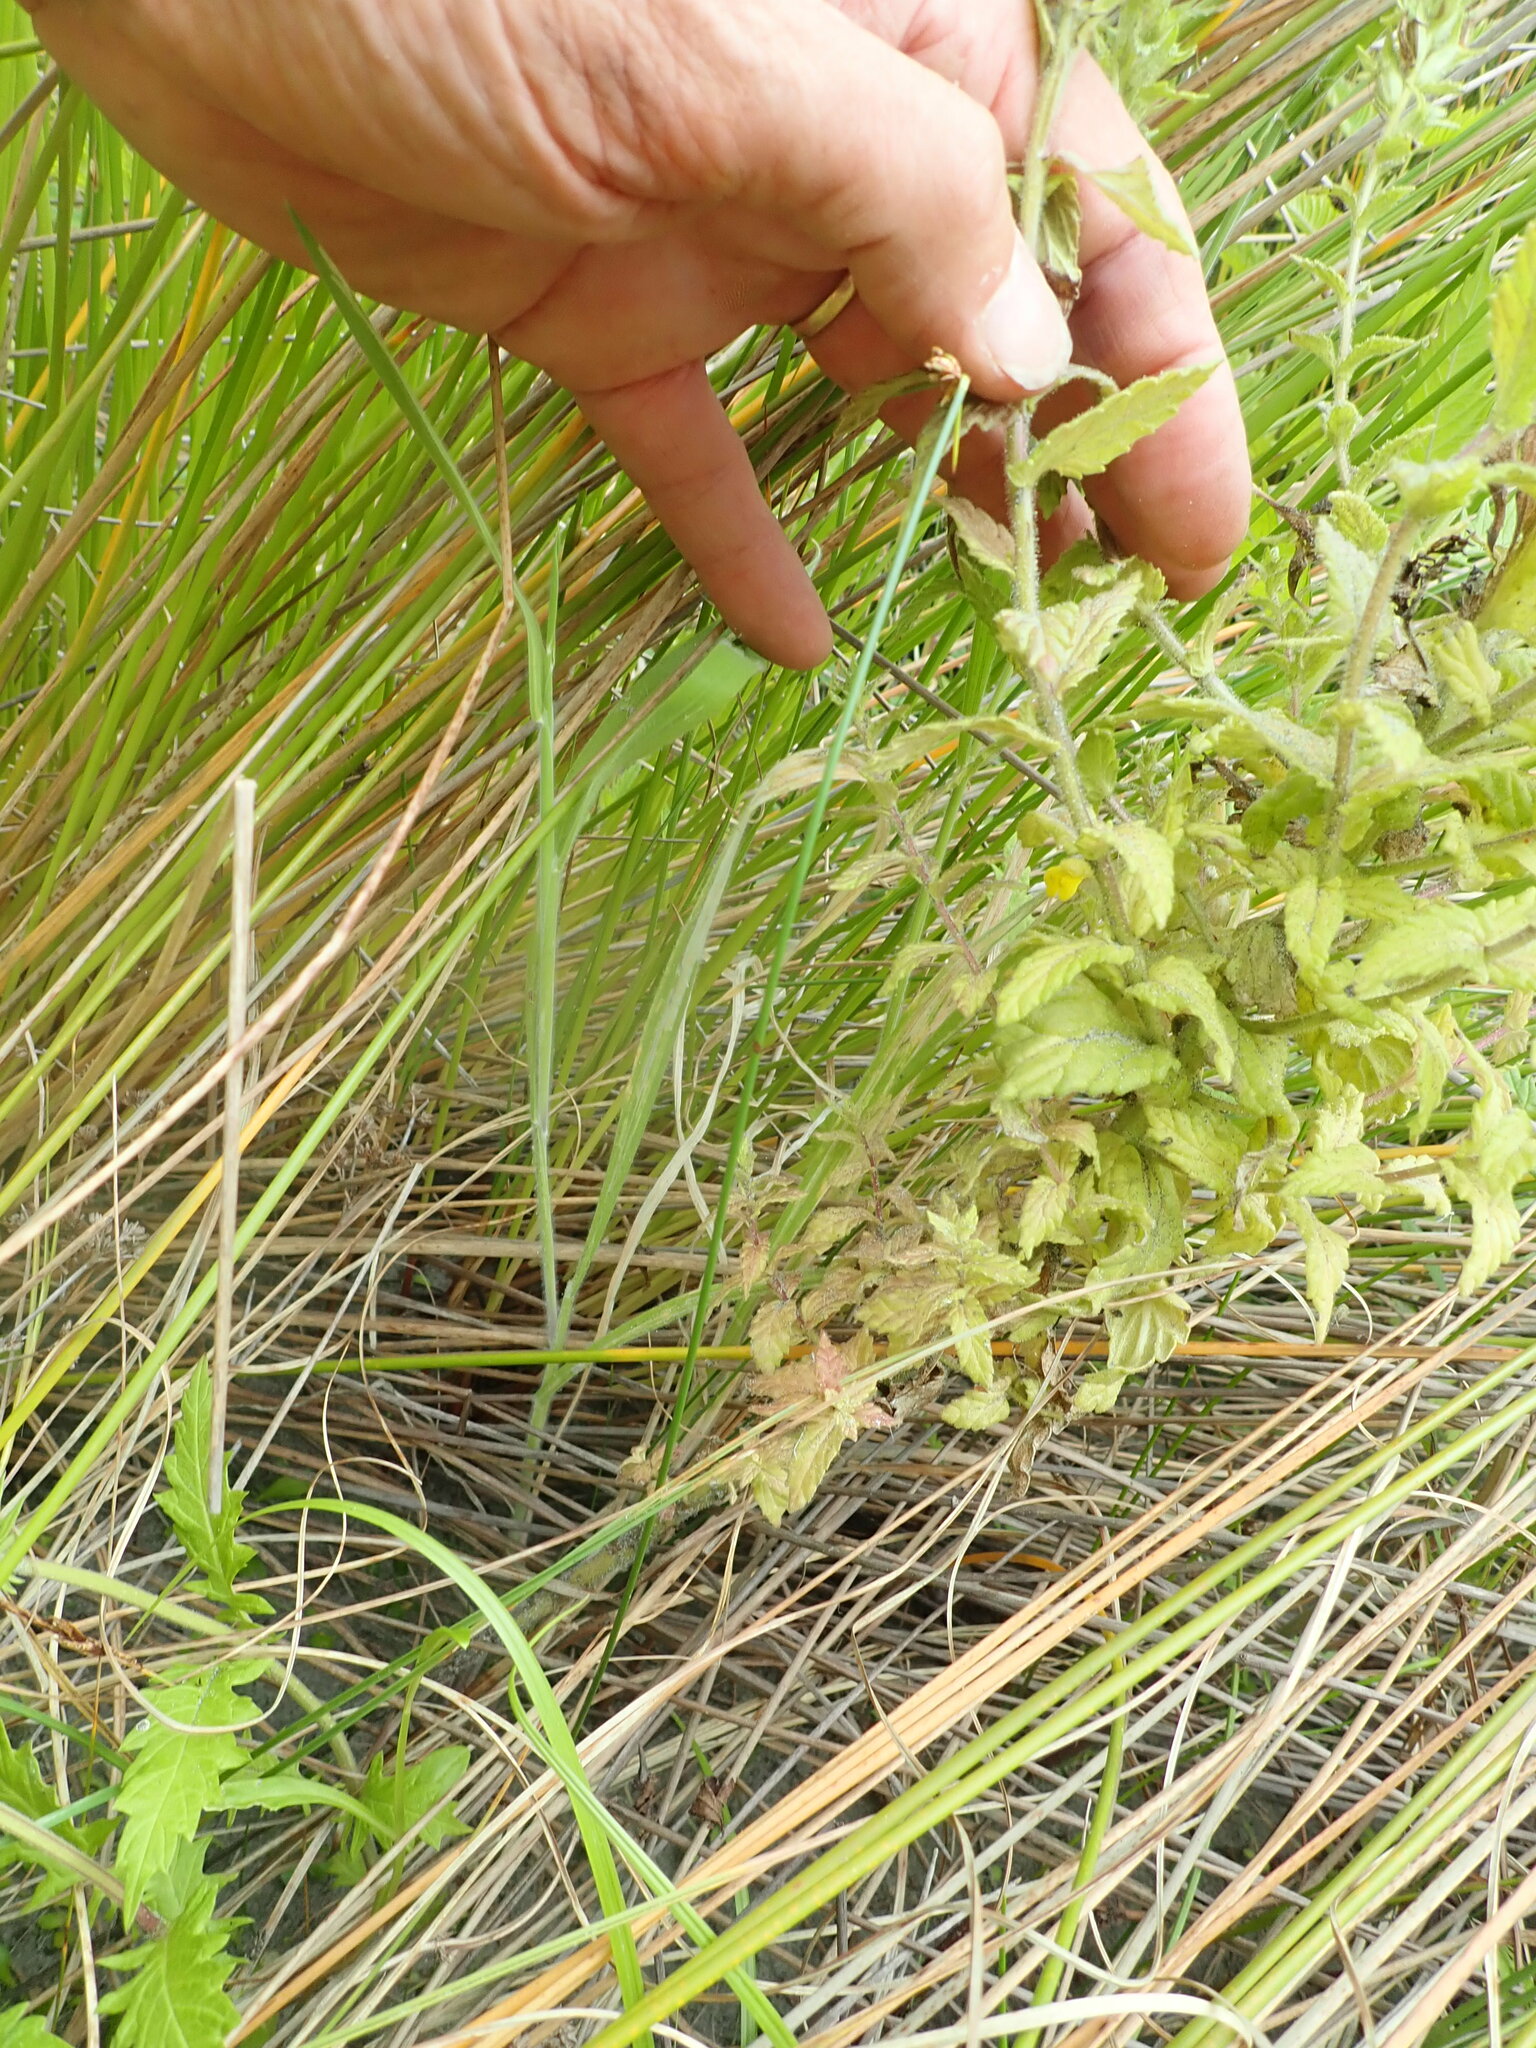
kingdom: Plantae
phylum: Tracheophyta
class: Magnoliopsida
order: Lamiales
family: Orobanchaceae
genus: Bellardia
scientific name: Bellardia viscosa
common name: Sticky parentucellia
